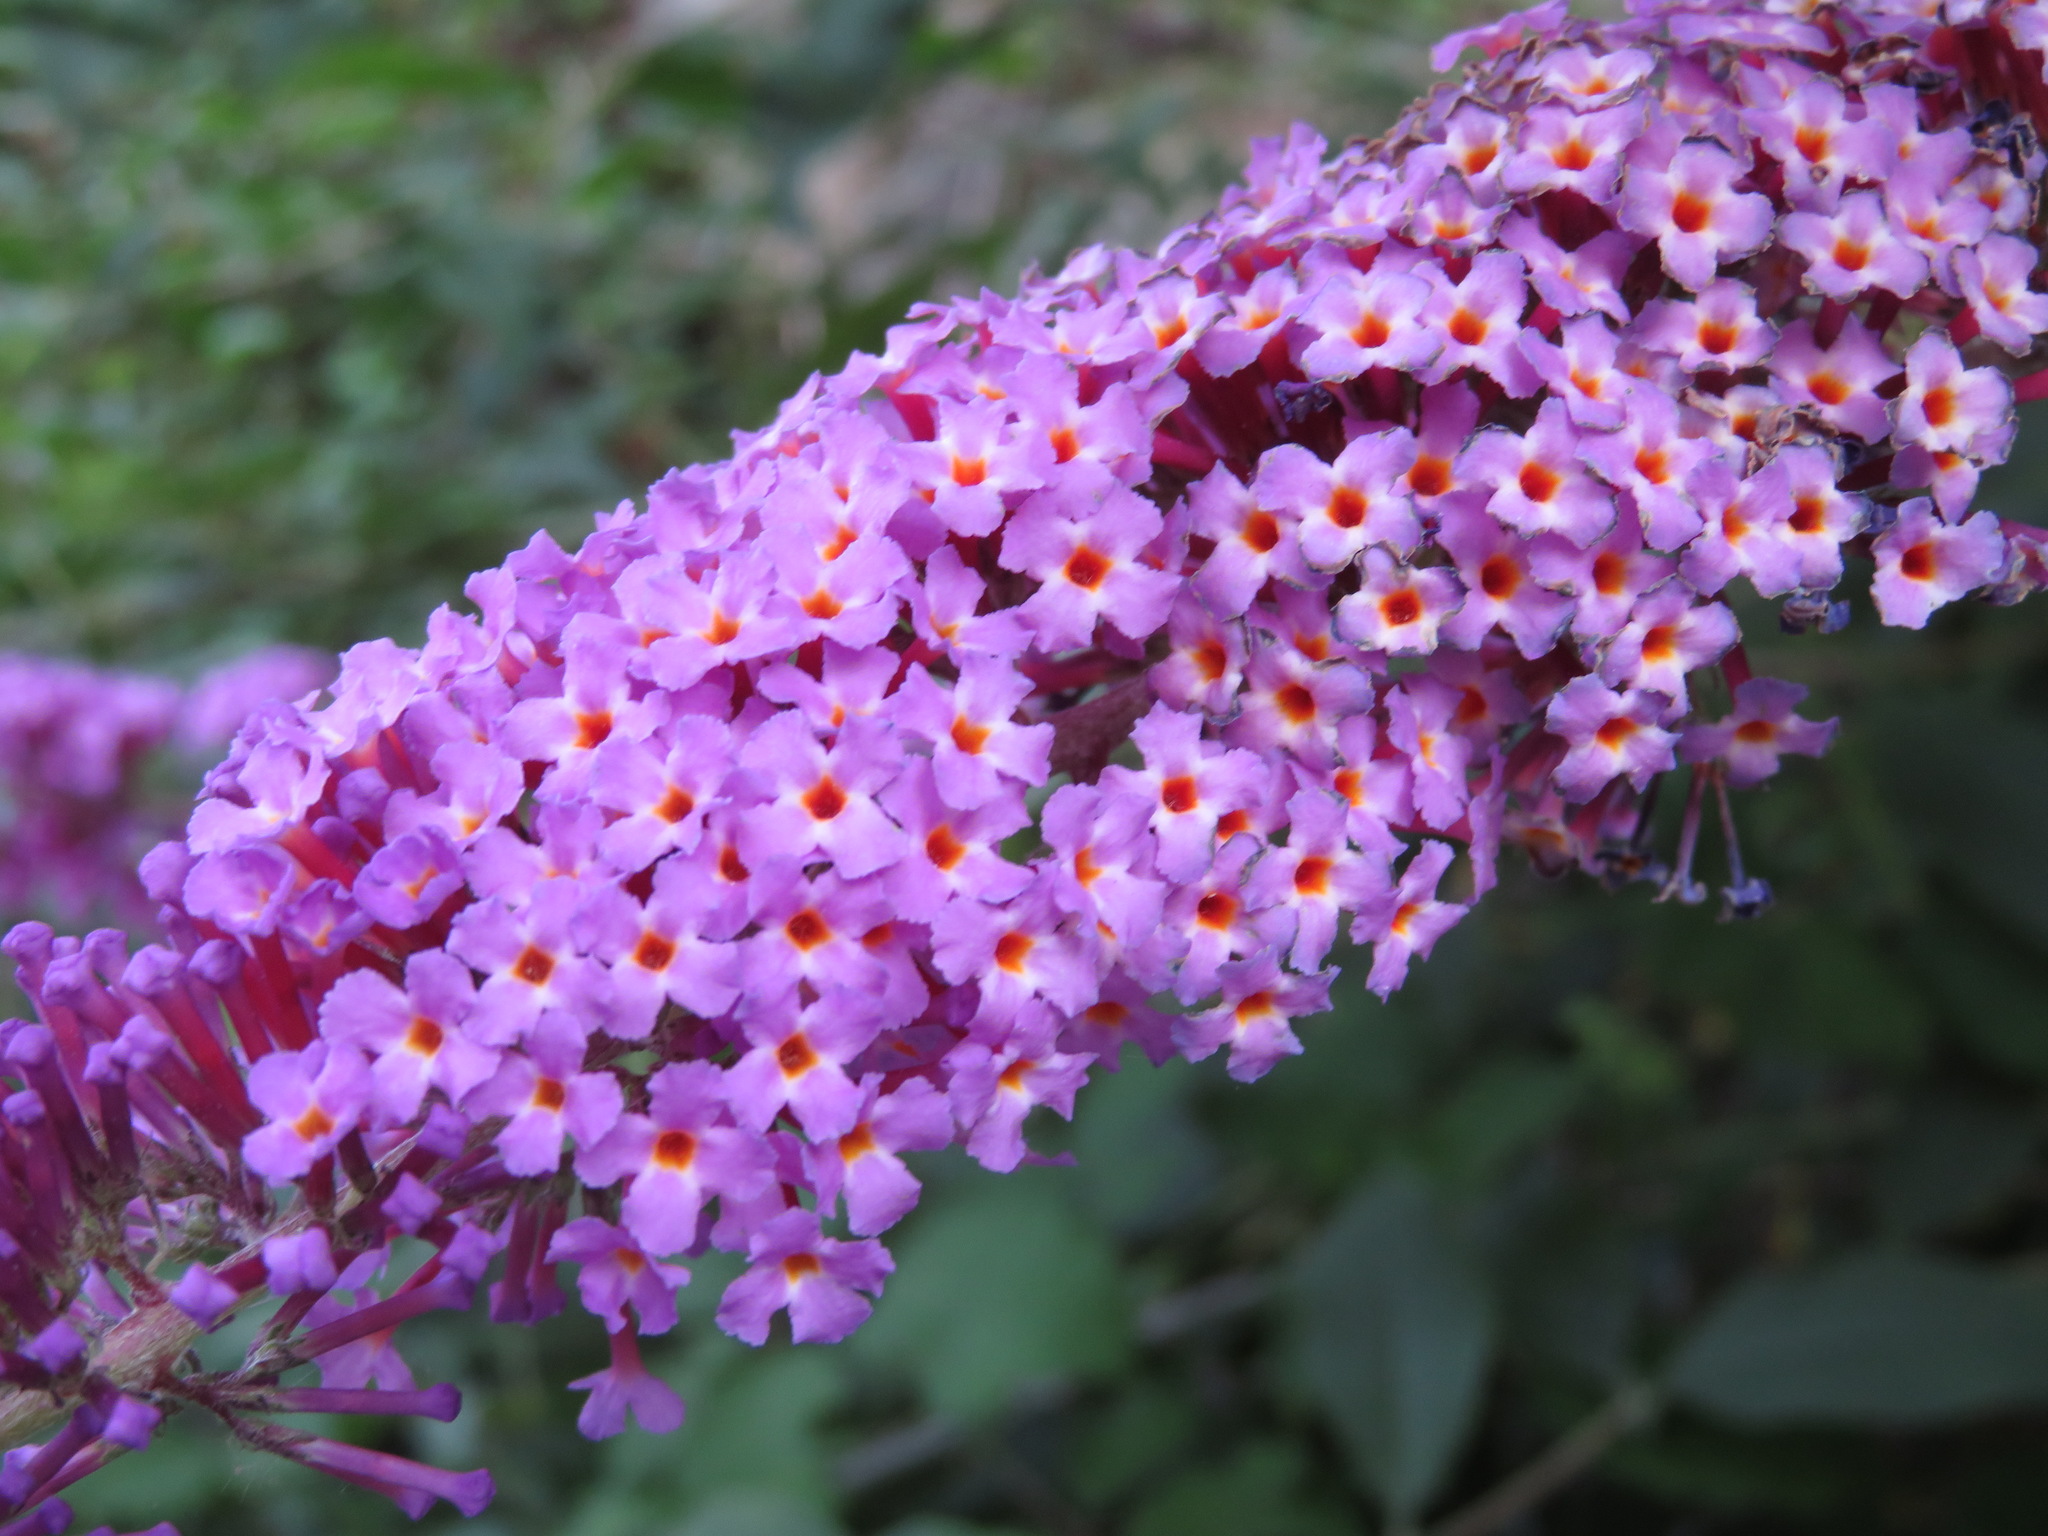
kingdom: Plantae
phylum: Tracheophyta
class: Magnoliopsida
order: Lamiales
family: Scrophulariaceae
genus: Buddleja
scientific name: Buddleja davidii
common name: Butterfly-bush
